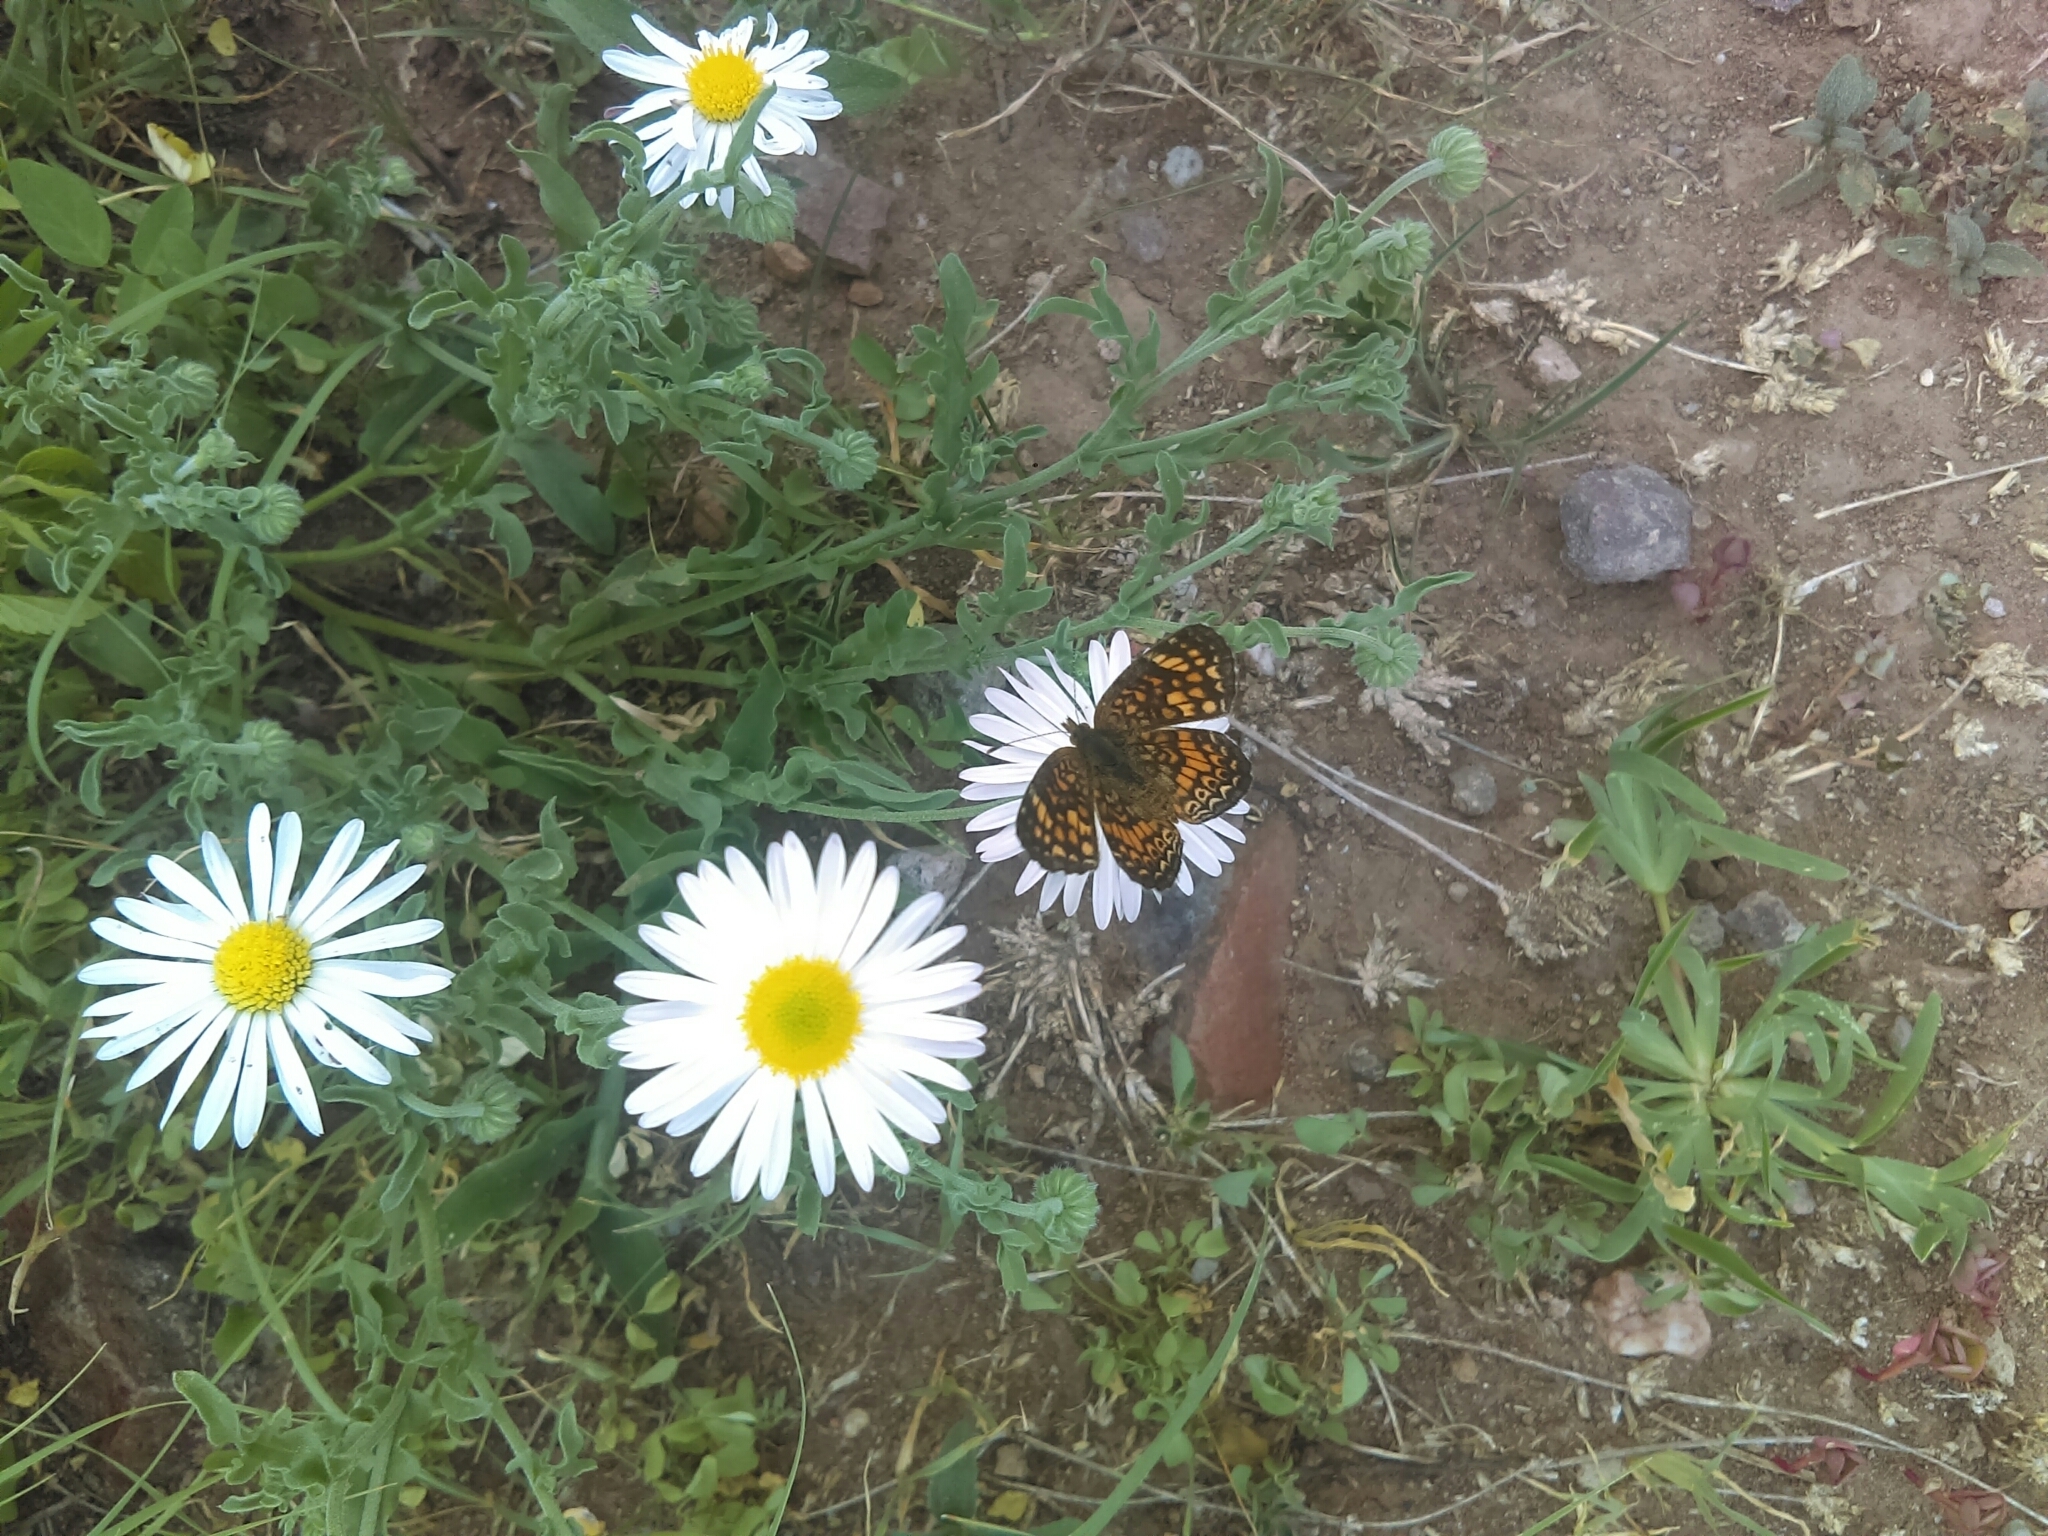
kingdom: Animalia
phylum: Arthropoda
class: Insecta
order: Lepidoptera
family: Nymphalidae
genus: Phyciodes
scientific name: Phyciodes vesta
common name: Vesta crescent
